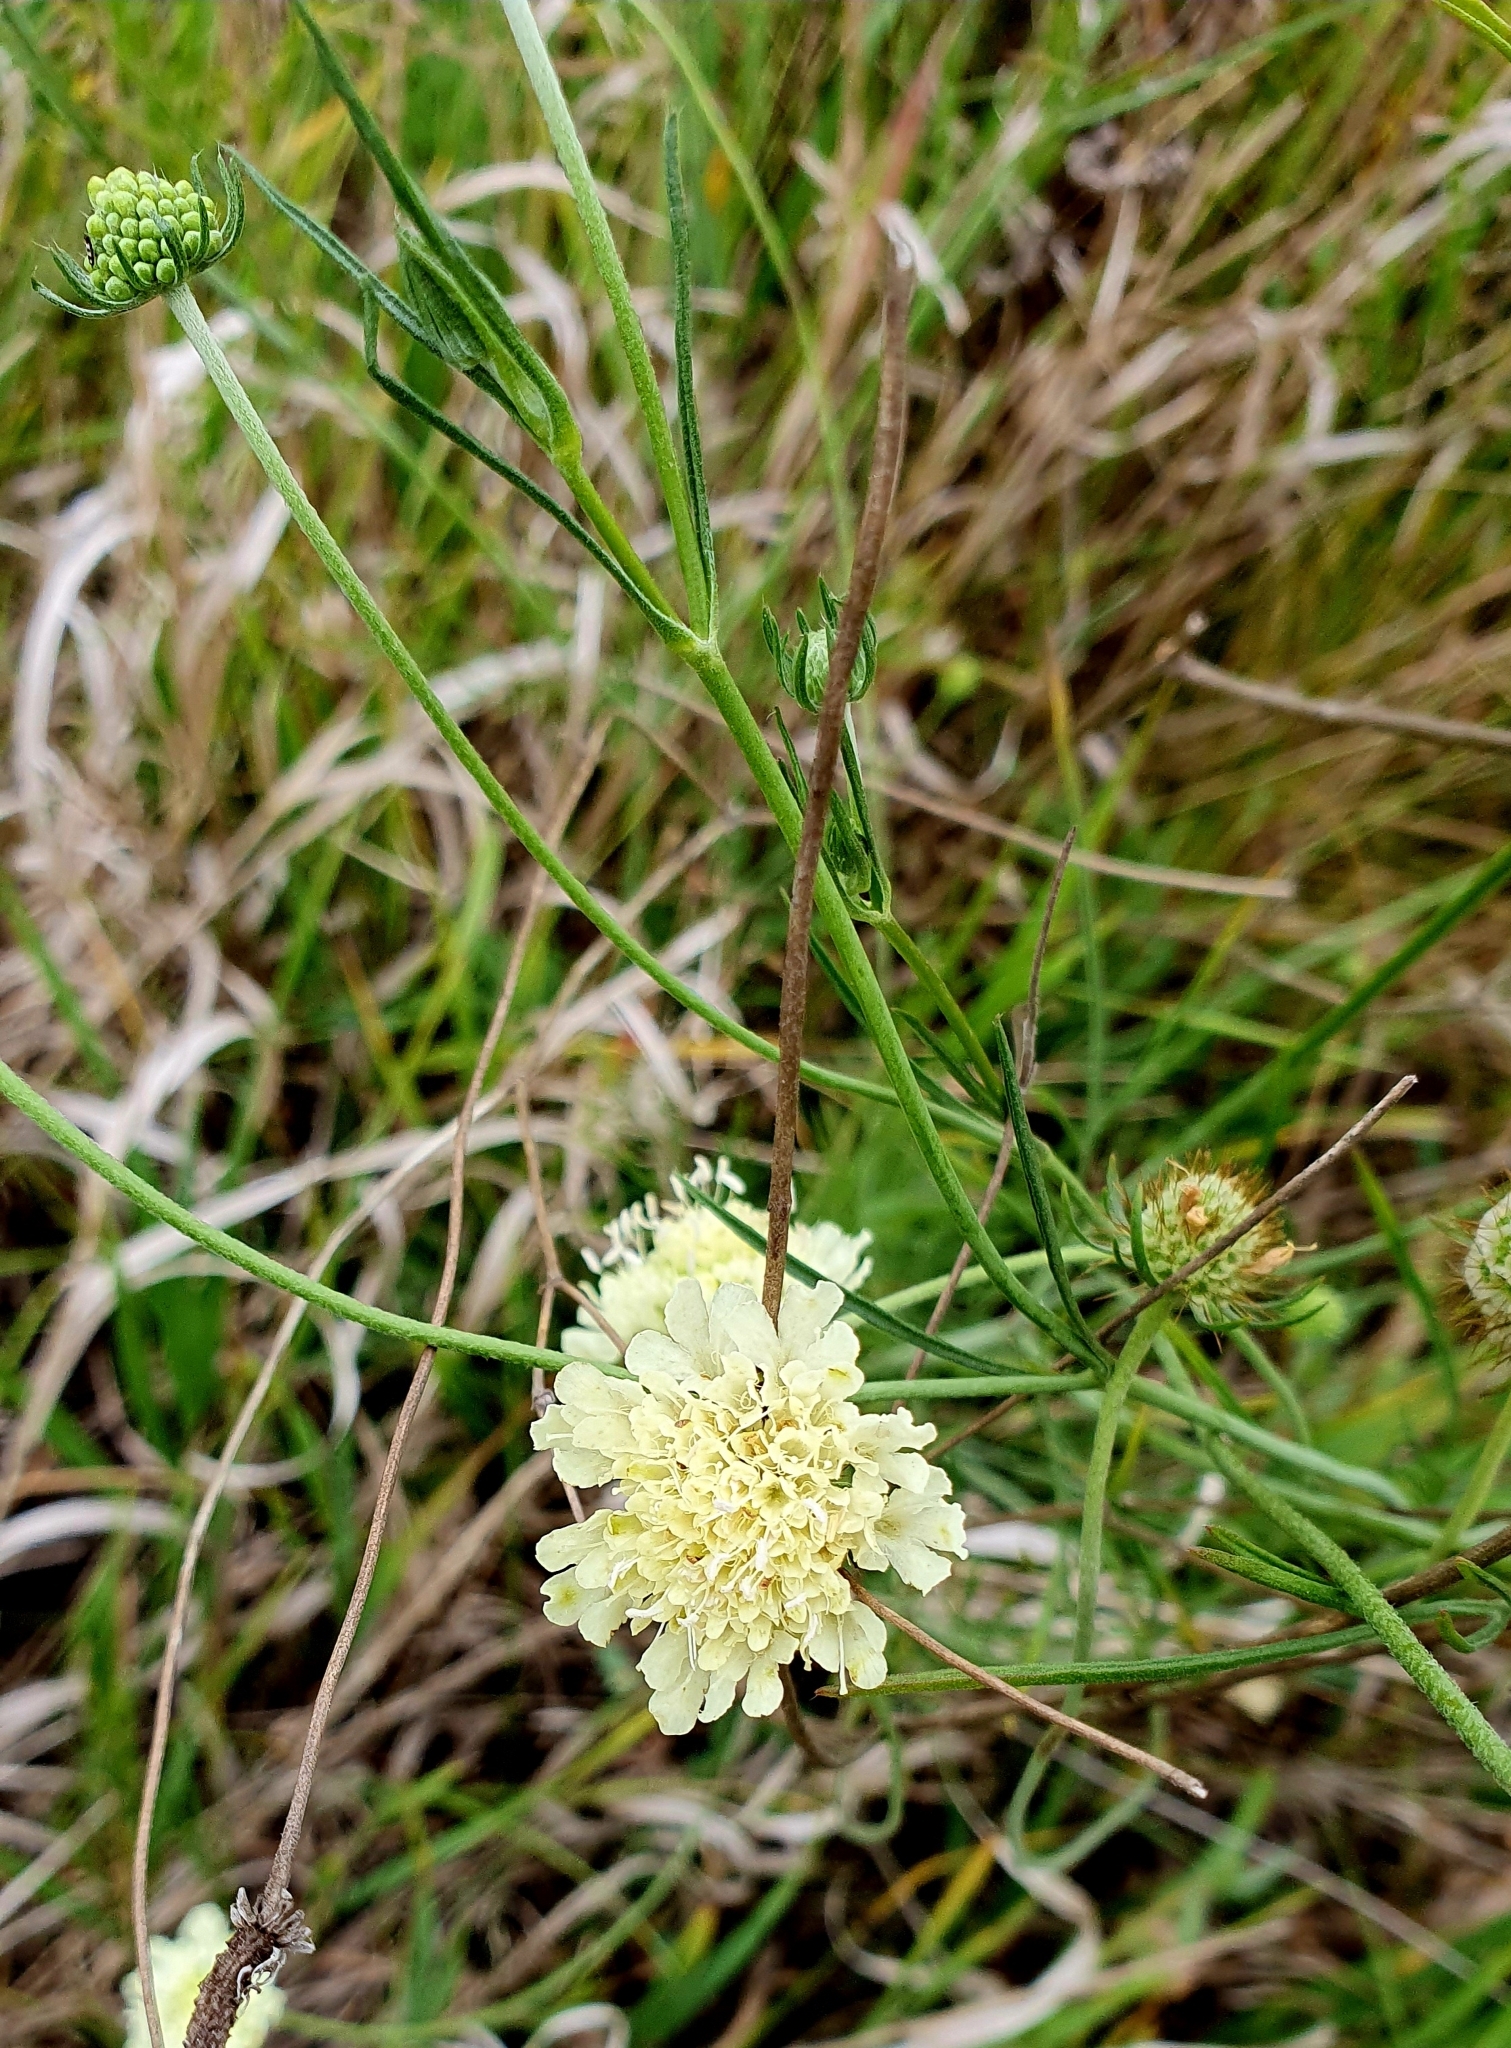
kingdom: Plantae
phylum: Tracheophyta
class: Magnoliopsida
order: Dipsacales
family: Caprifoliaceae
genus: Scabiosa
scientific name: Scabiosa ochroleuca
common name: Cream pincushions
